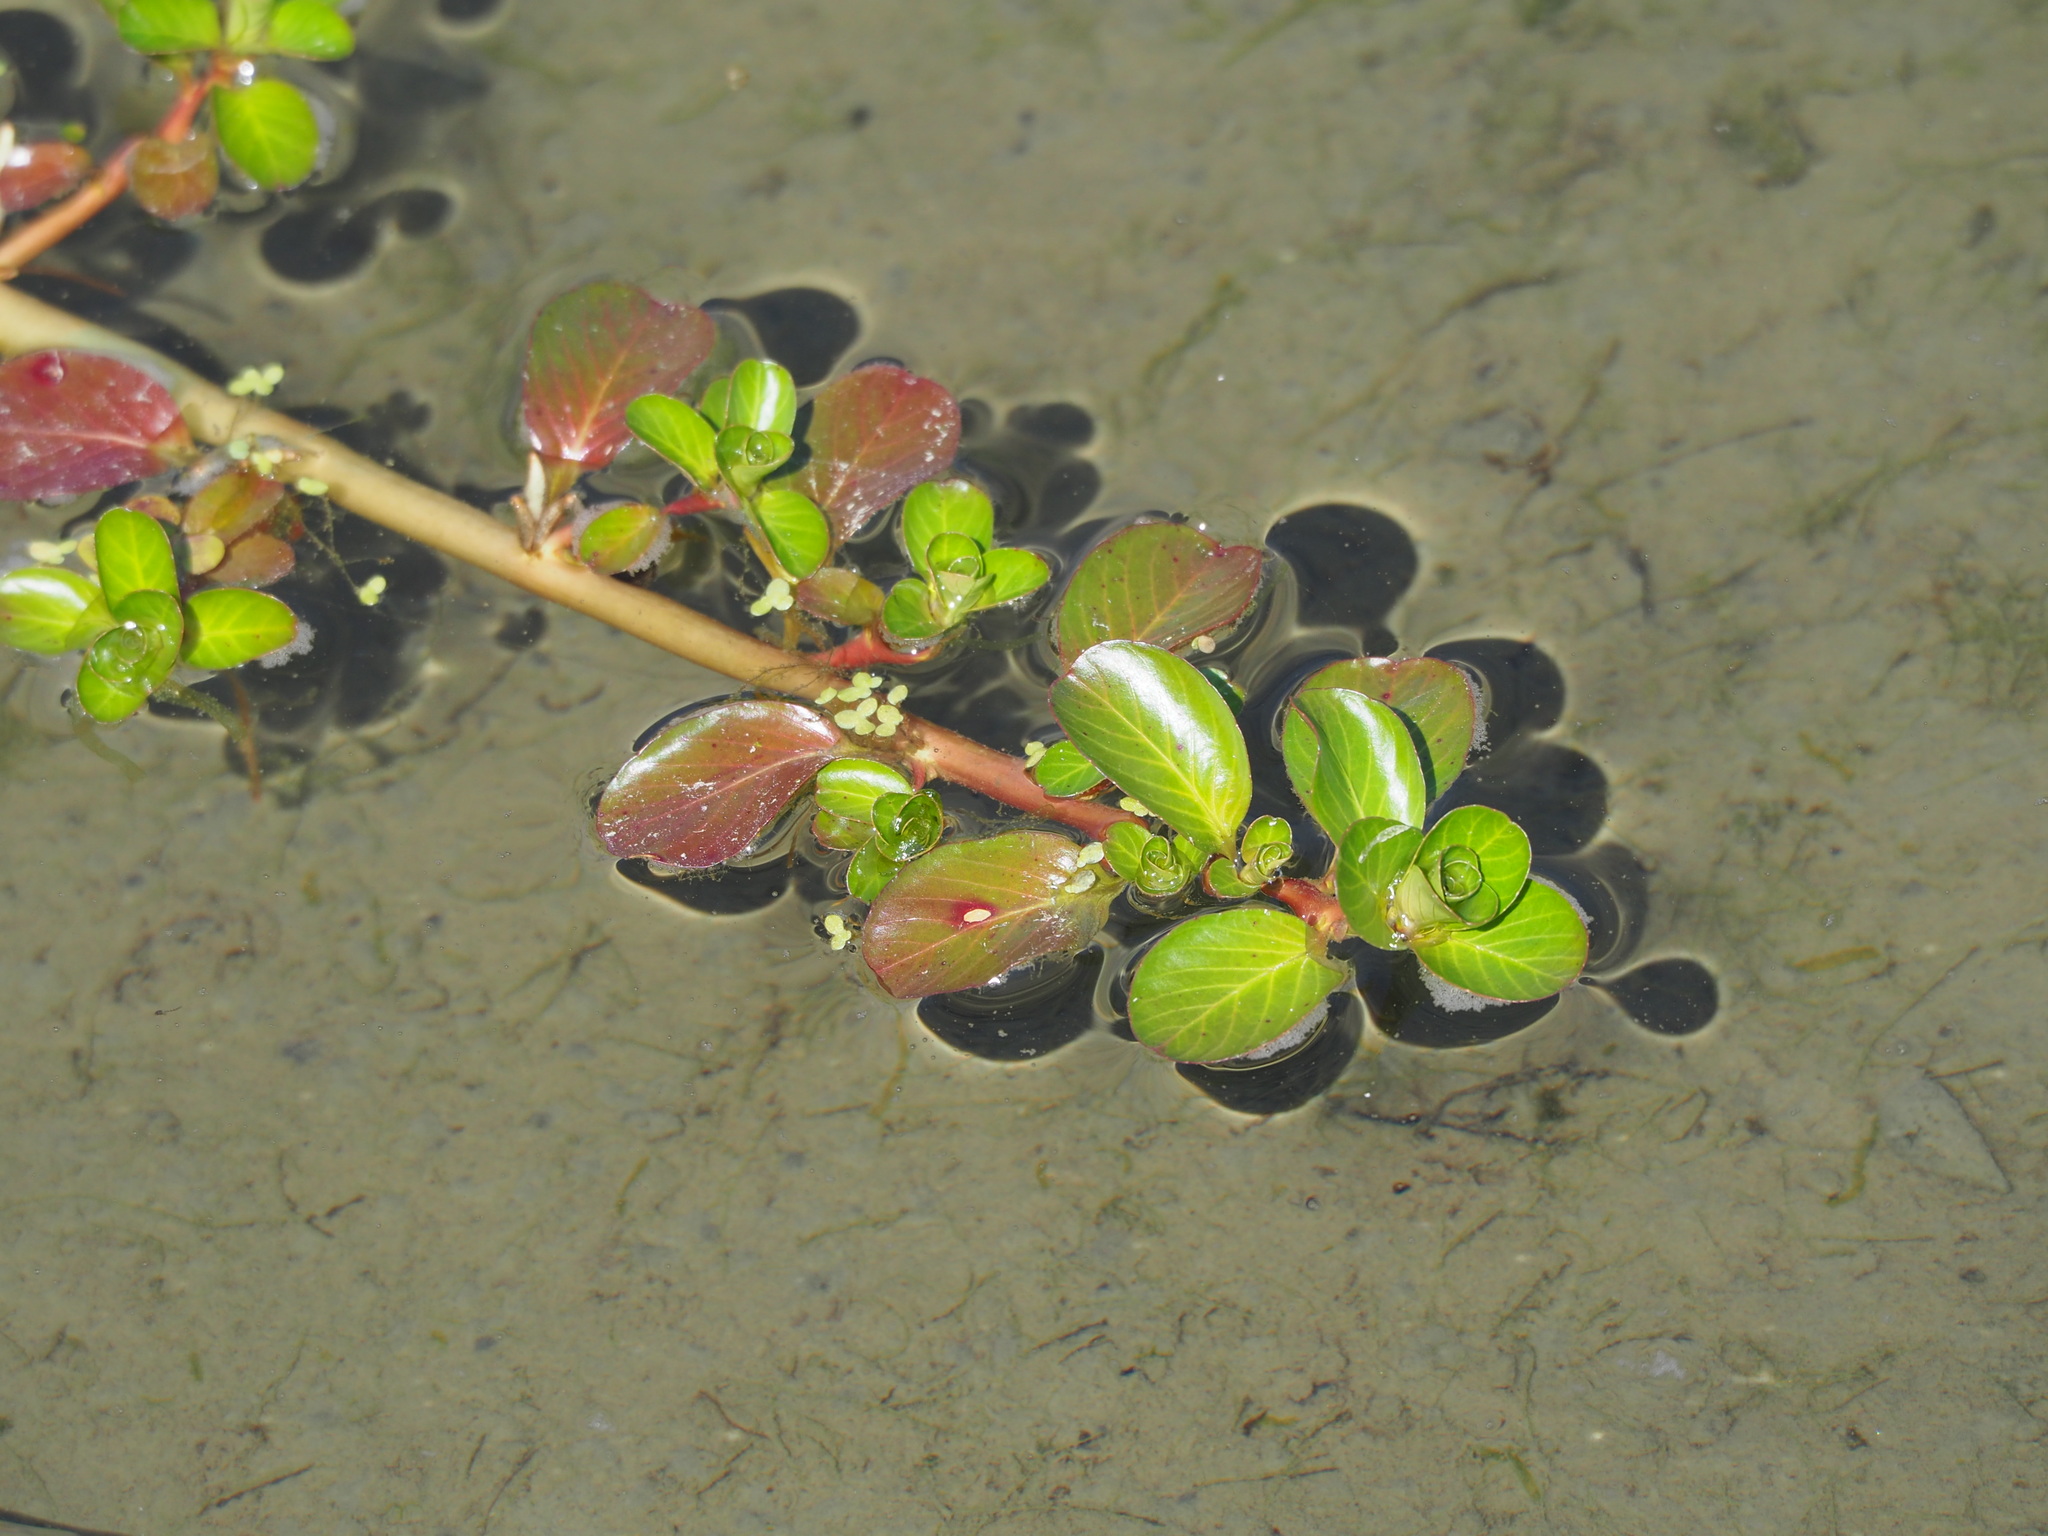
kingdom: Plantae
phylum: Tracheophyta
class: Magnoliopsida
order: Myrtales
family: Onagraceae
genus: Ludwigia
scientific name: Ludwigia taiwanensis
